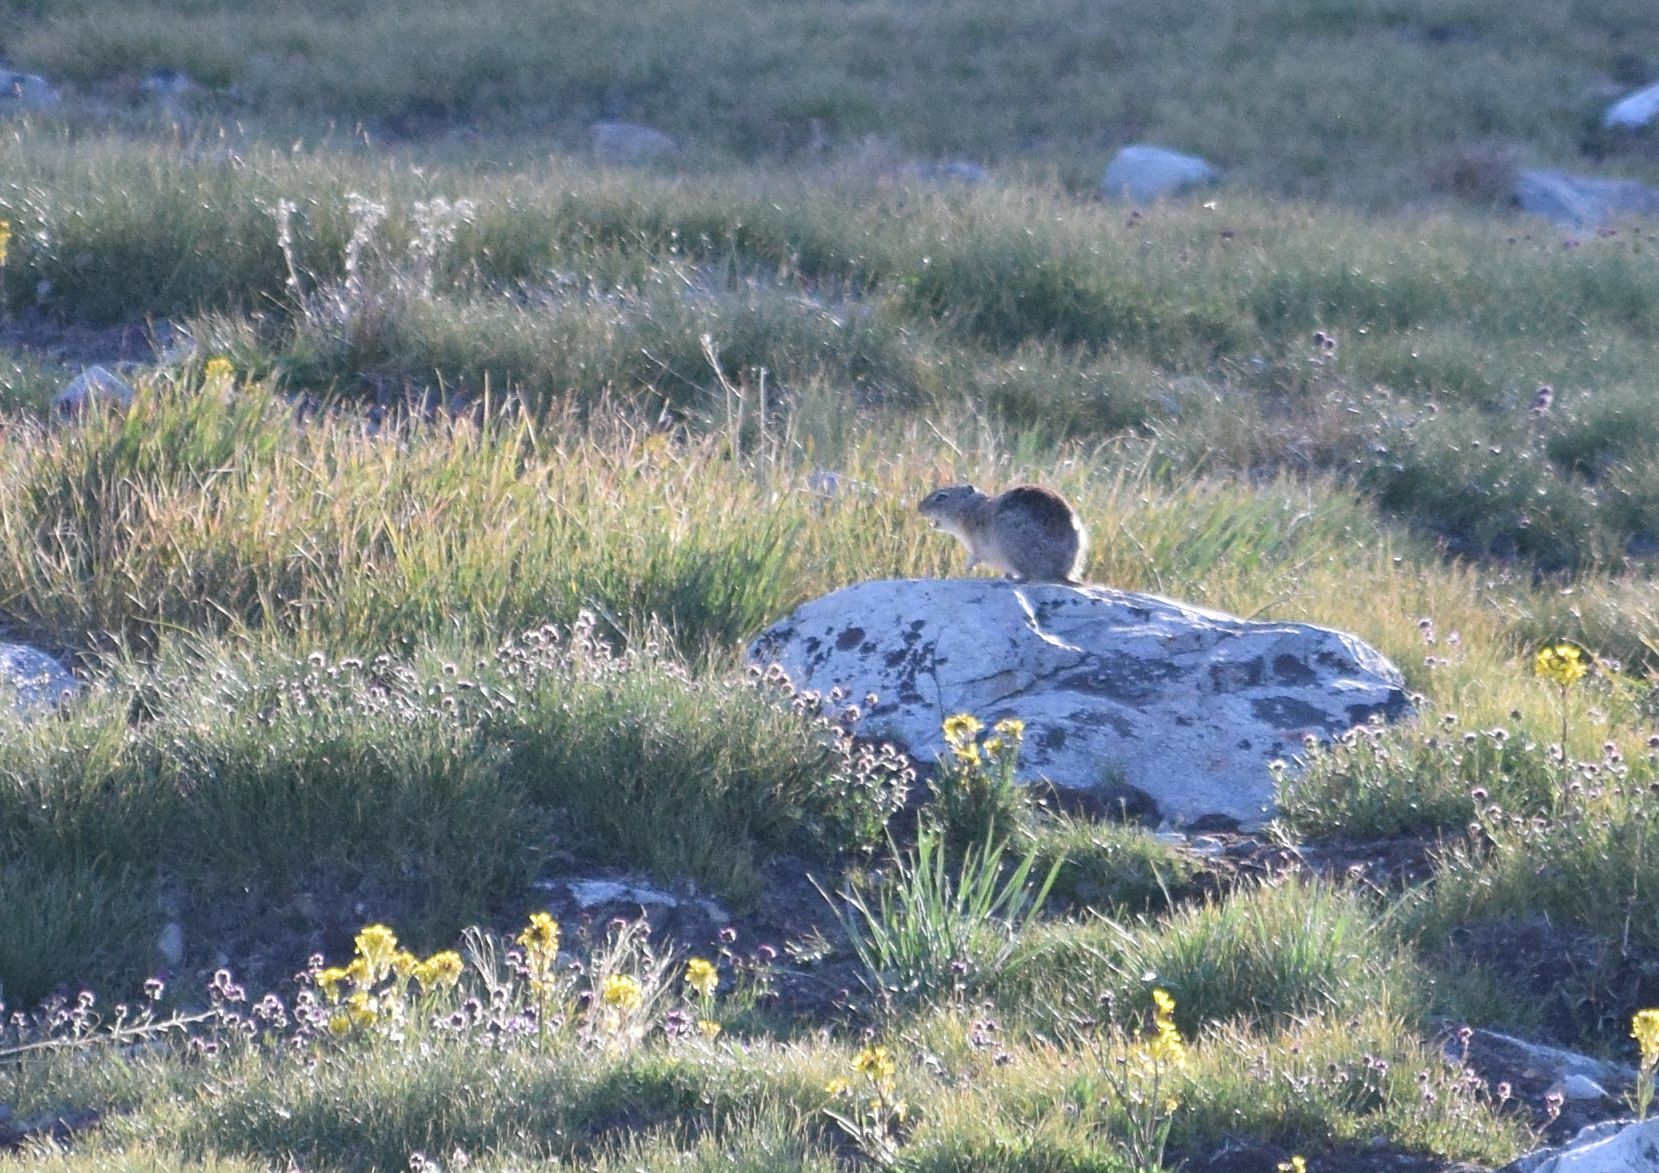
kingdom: Animalia
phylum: Chordata
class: Mammalia
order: Rodentia
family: Sciuridae
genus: Urocitellus
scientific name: Urocitellus beldingi
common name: Belding's ground squirrel
